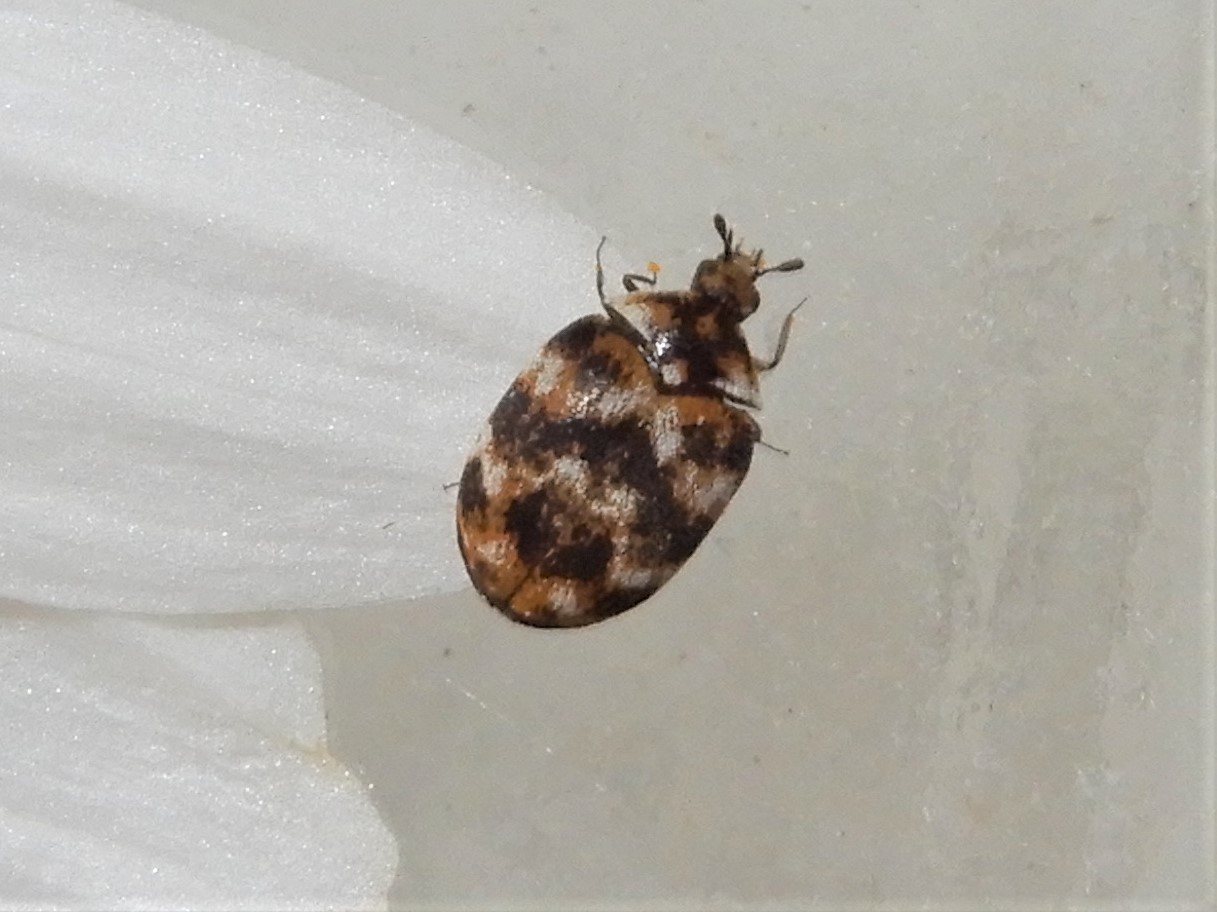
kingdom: Animalia
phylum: Arthropoda
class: Insecta
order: Coleoptera
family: Dermestidae
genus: Anthrenus
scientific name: Anthrenus verbasci
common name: Varied carpet beetle
